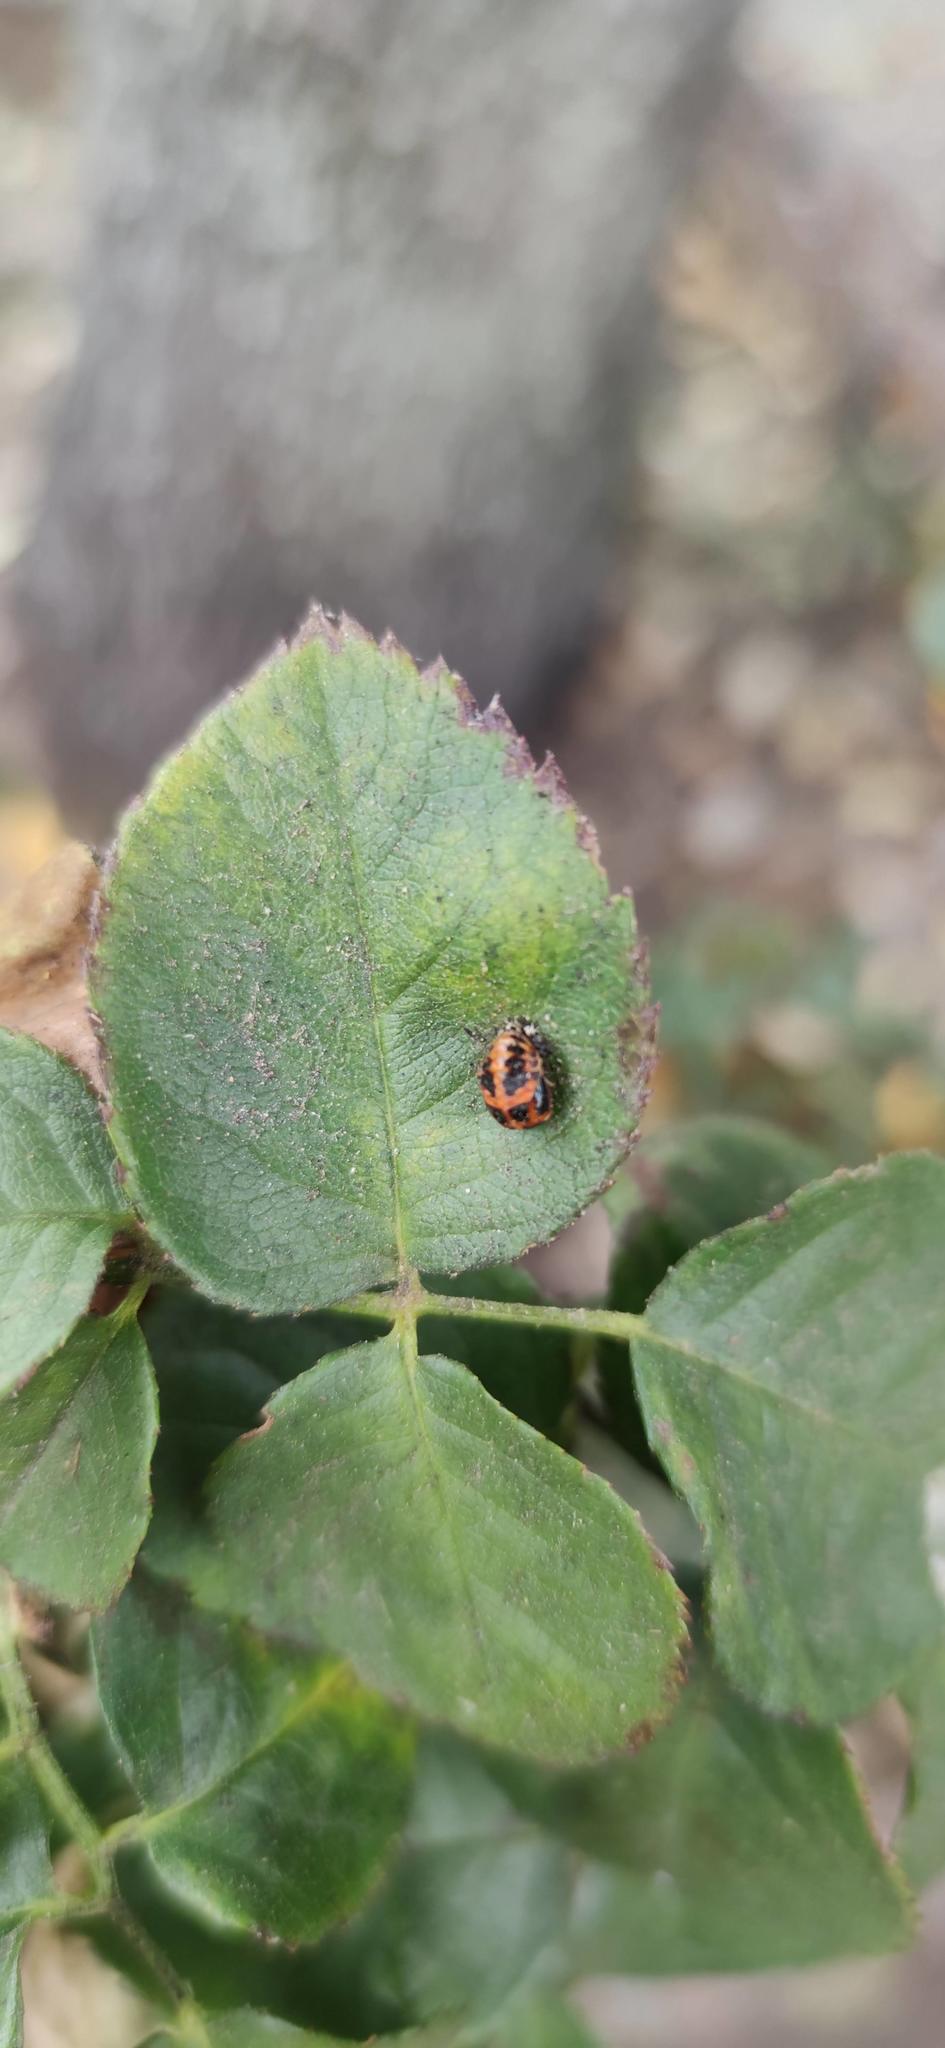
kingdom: Animalia
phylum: Arthropoda
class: Insecta
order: Coleoptera
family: Coccinellidae
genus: Harmonia
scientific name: Harmonia axyridis
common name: Harlequin ladybird
